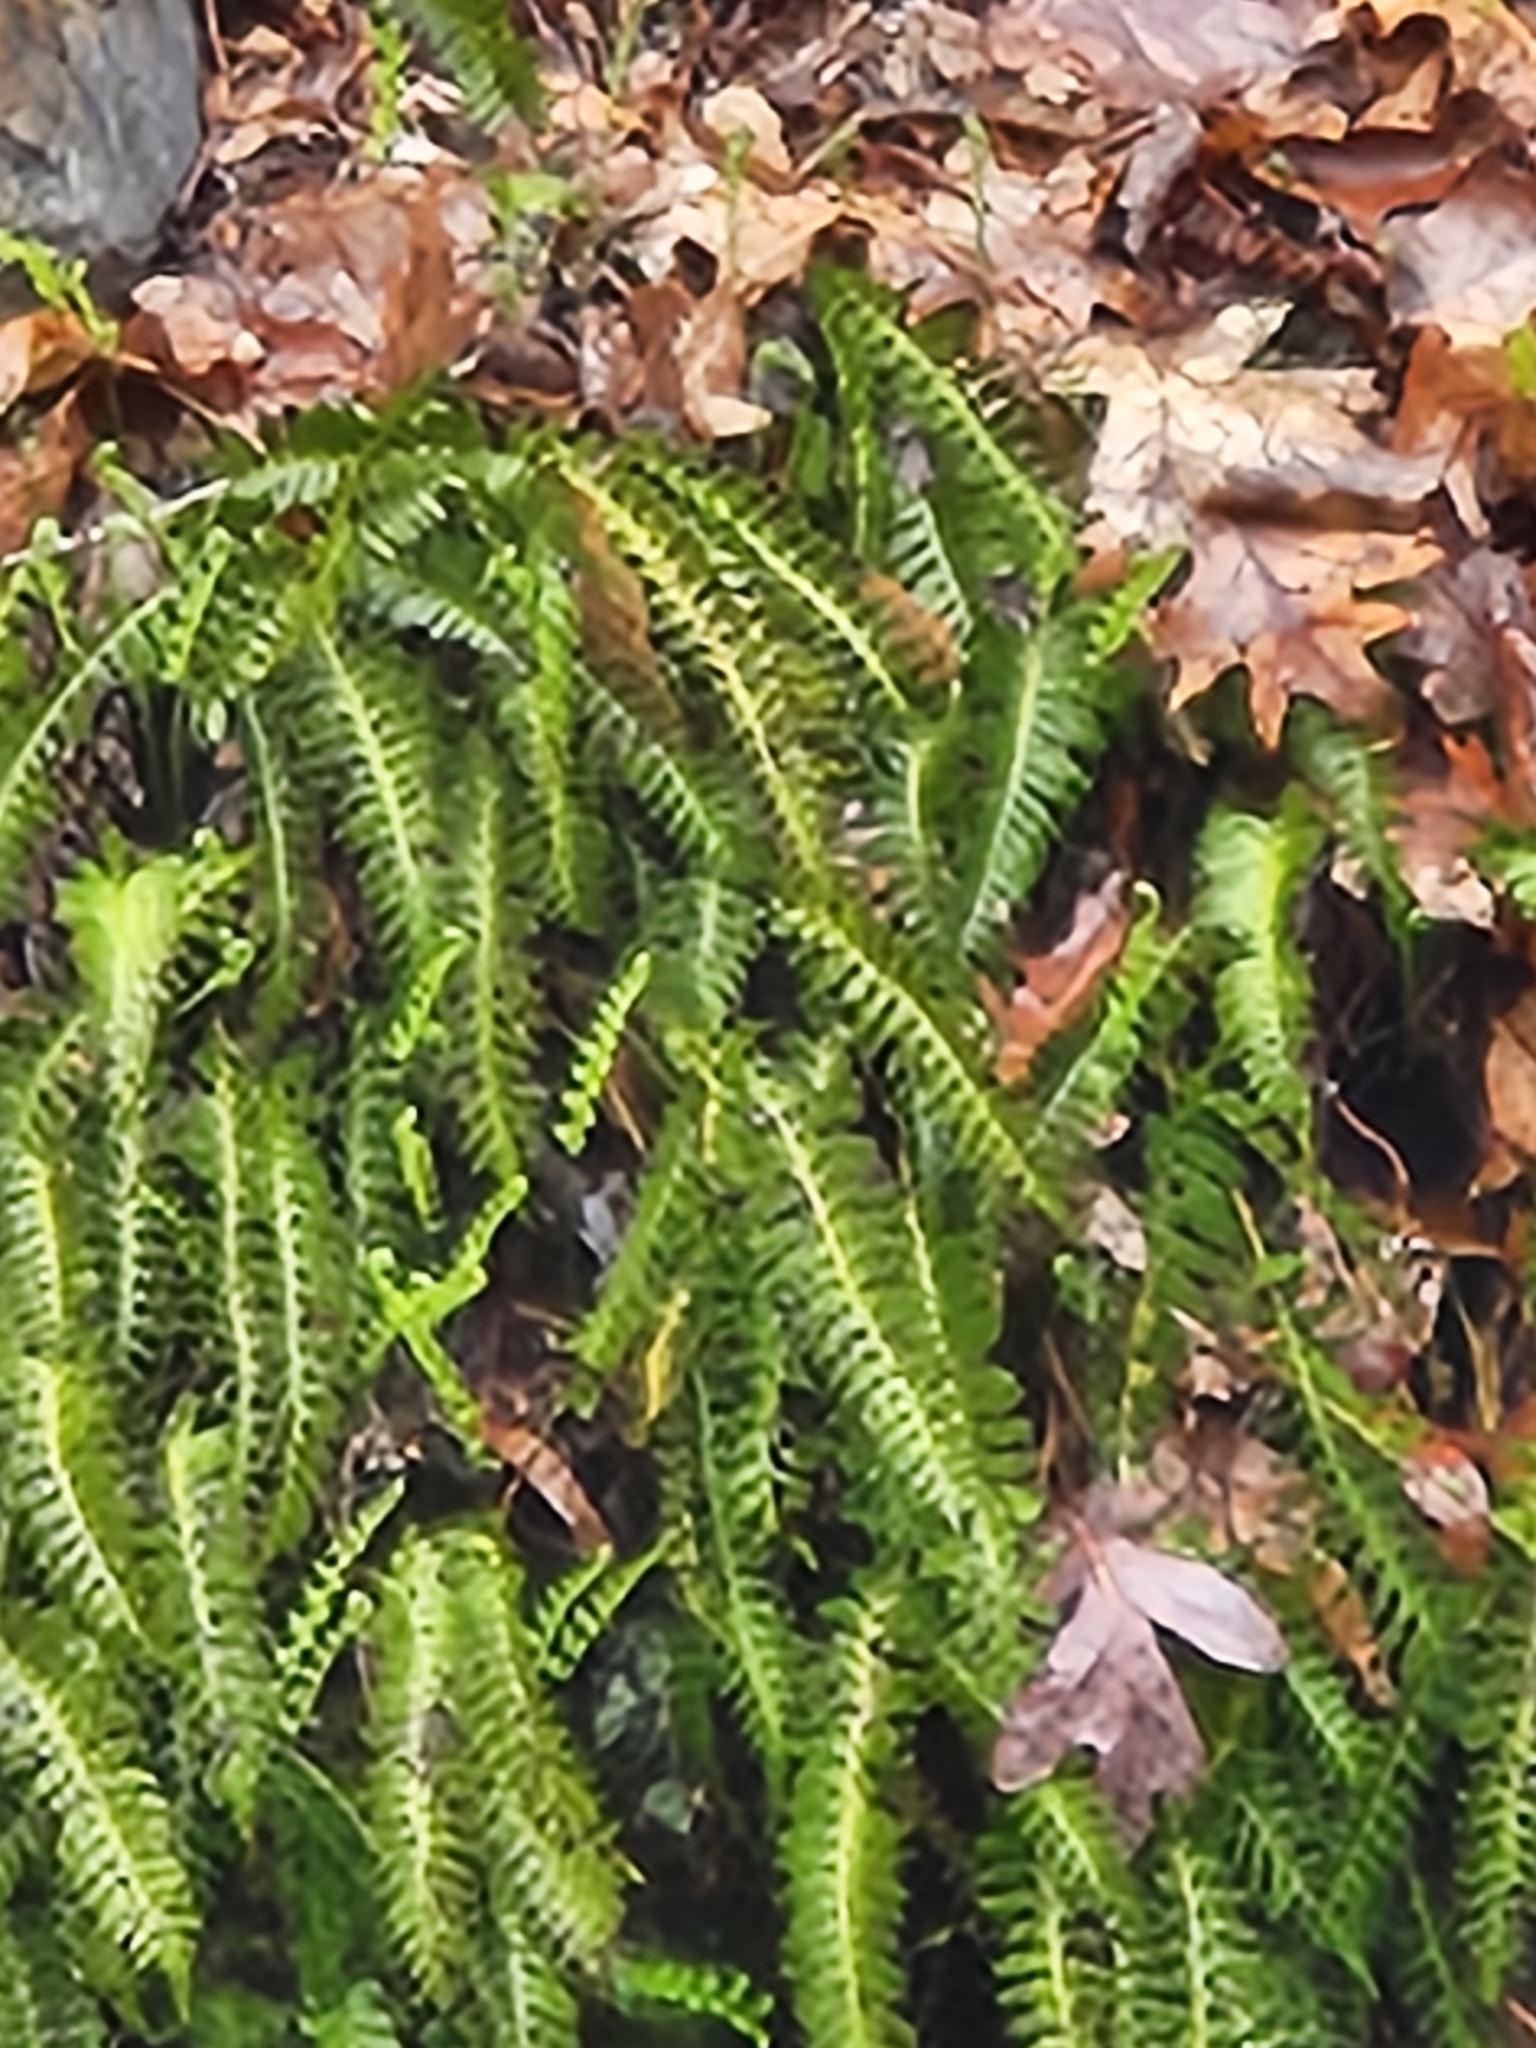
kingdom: Plantae
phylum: Tracheophyta
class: Polypodiopsida
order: Polypodiales
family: Polypodiaceae
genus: Polypodium
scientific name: Polypodium virginianum
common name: American wall fern
